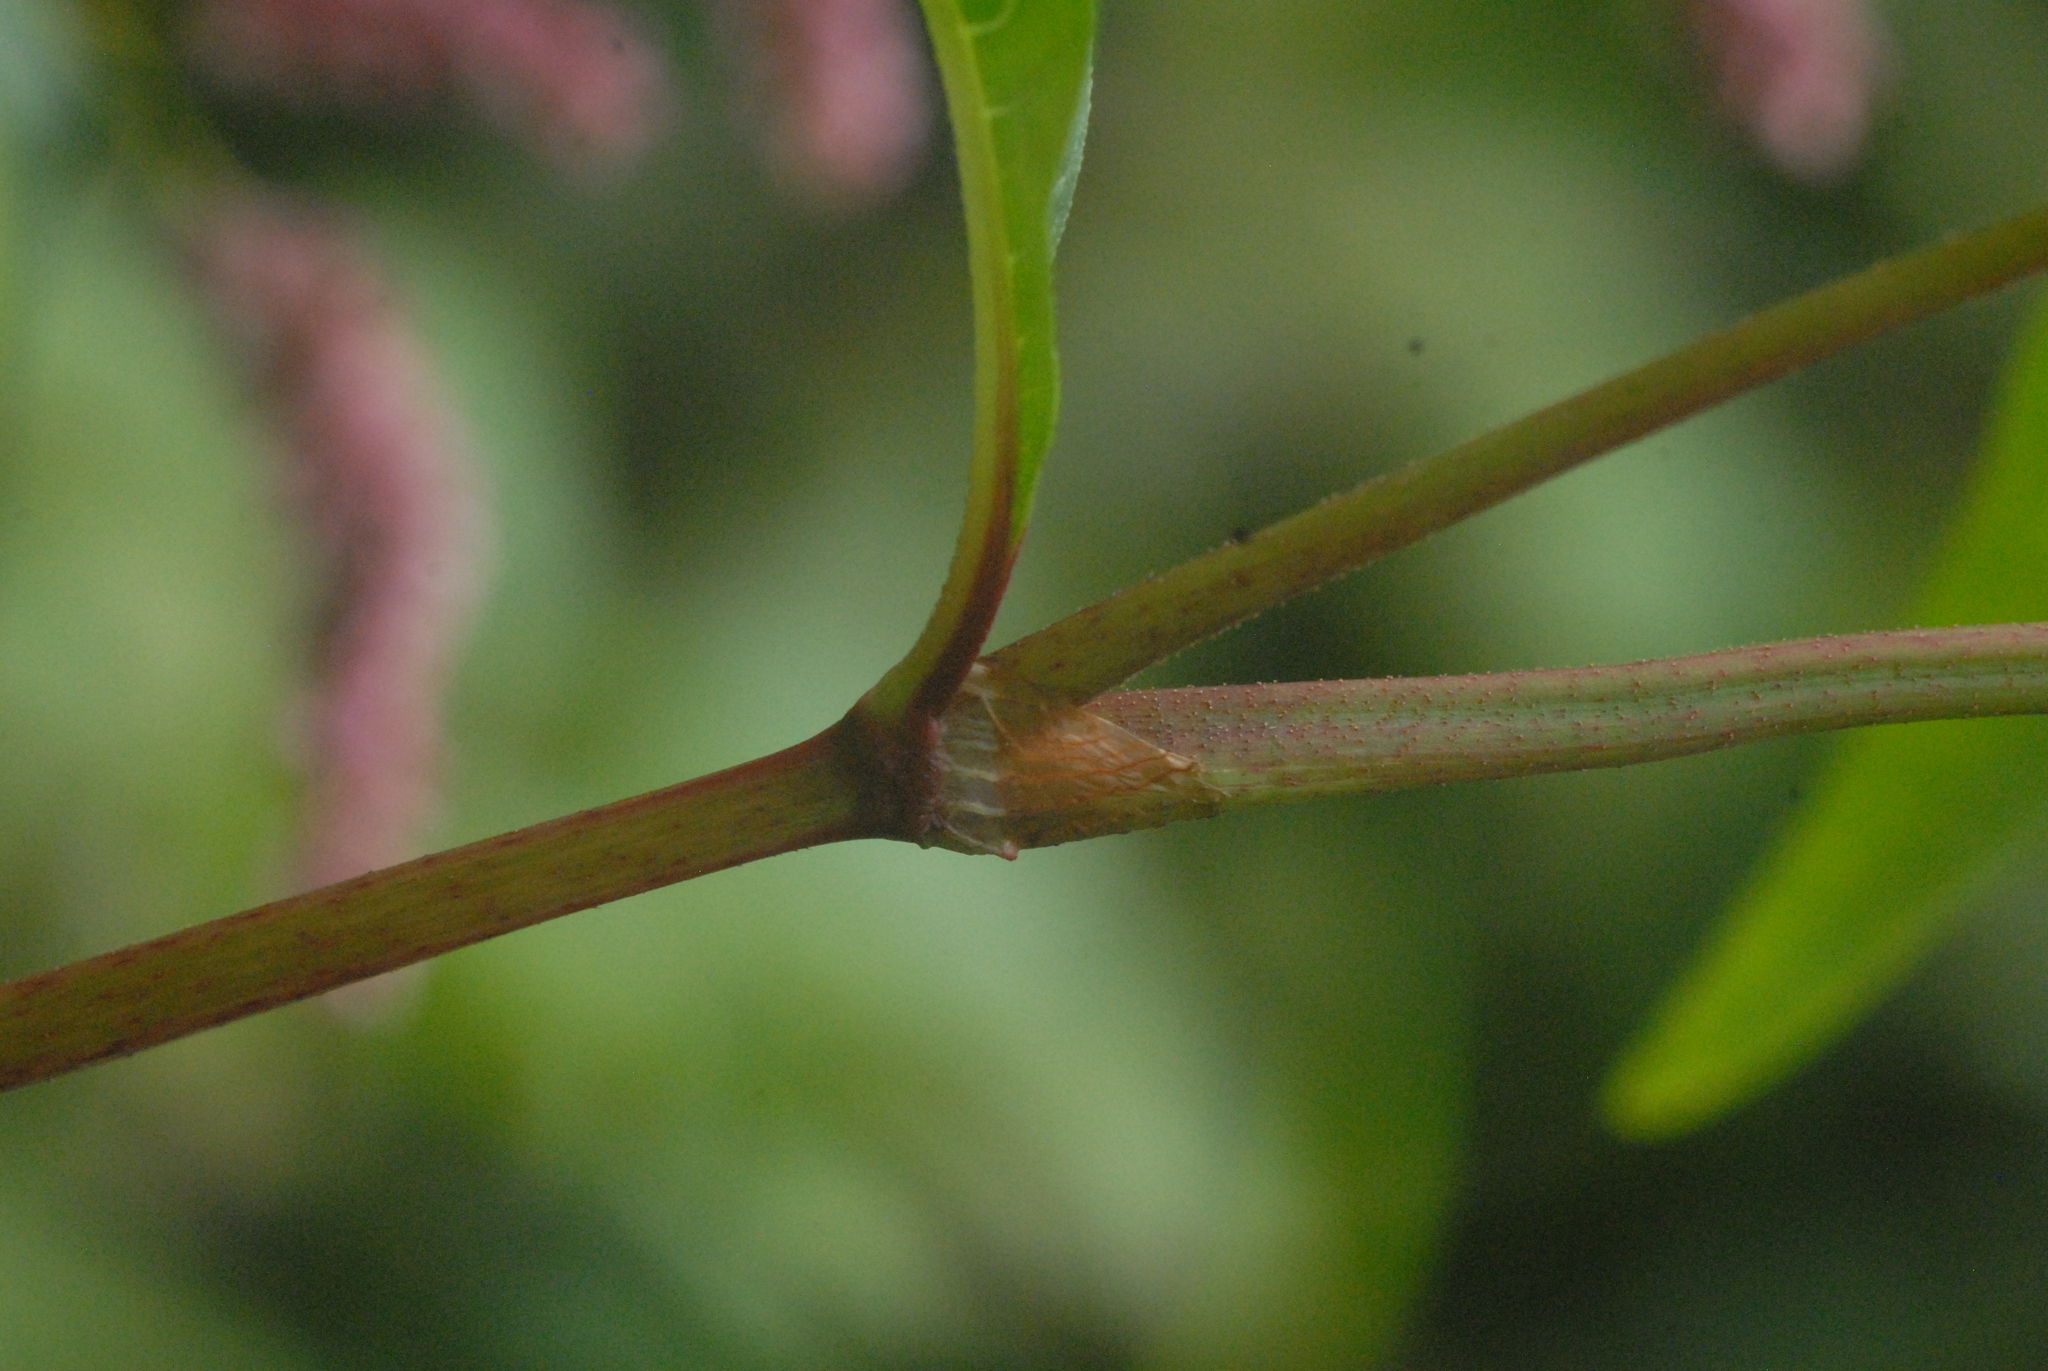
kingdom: Plantae
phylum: Tracheophyta
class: Magnoliopsida
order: Caryophyllales
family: Polygonaceae
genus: Persicaria
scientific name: Persicaria lapathifolia
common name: Curlytop knotweed
